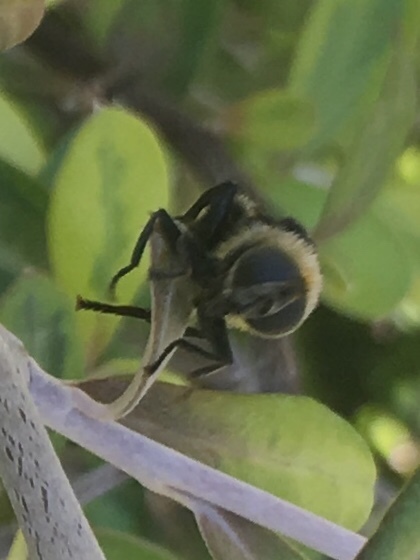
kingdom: Animalia
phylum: Arthropoda
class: Insecta
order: Diptera
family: Syrphidae
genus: Merodon
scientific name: Merodon equestris
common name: Greater bulb-fly
